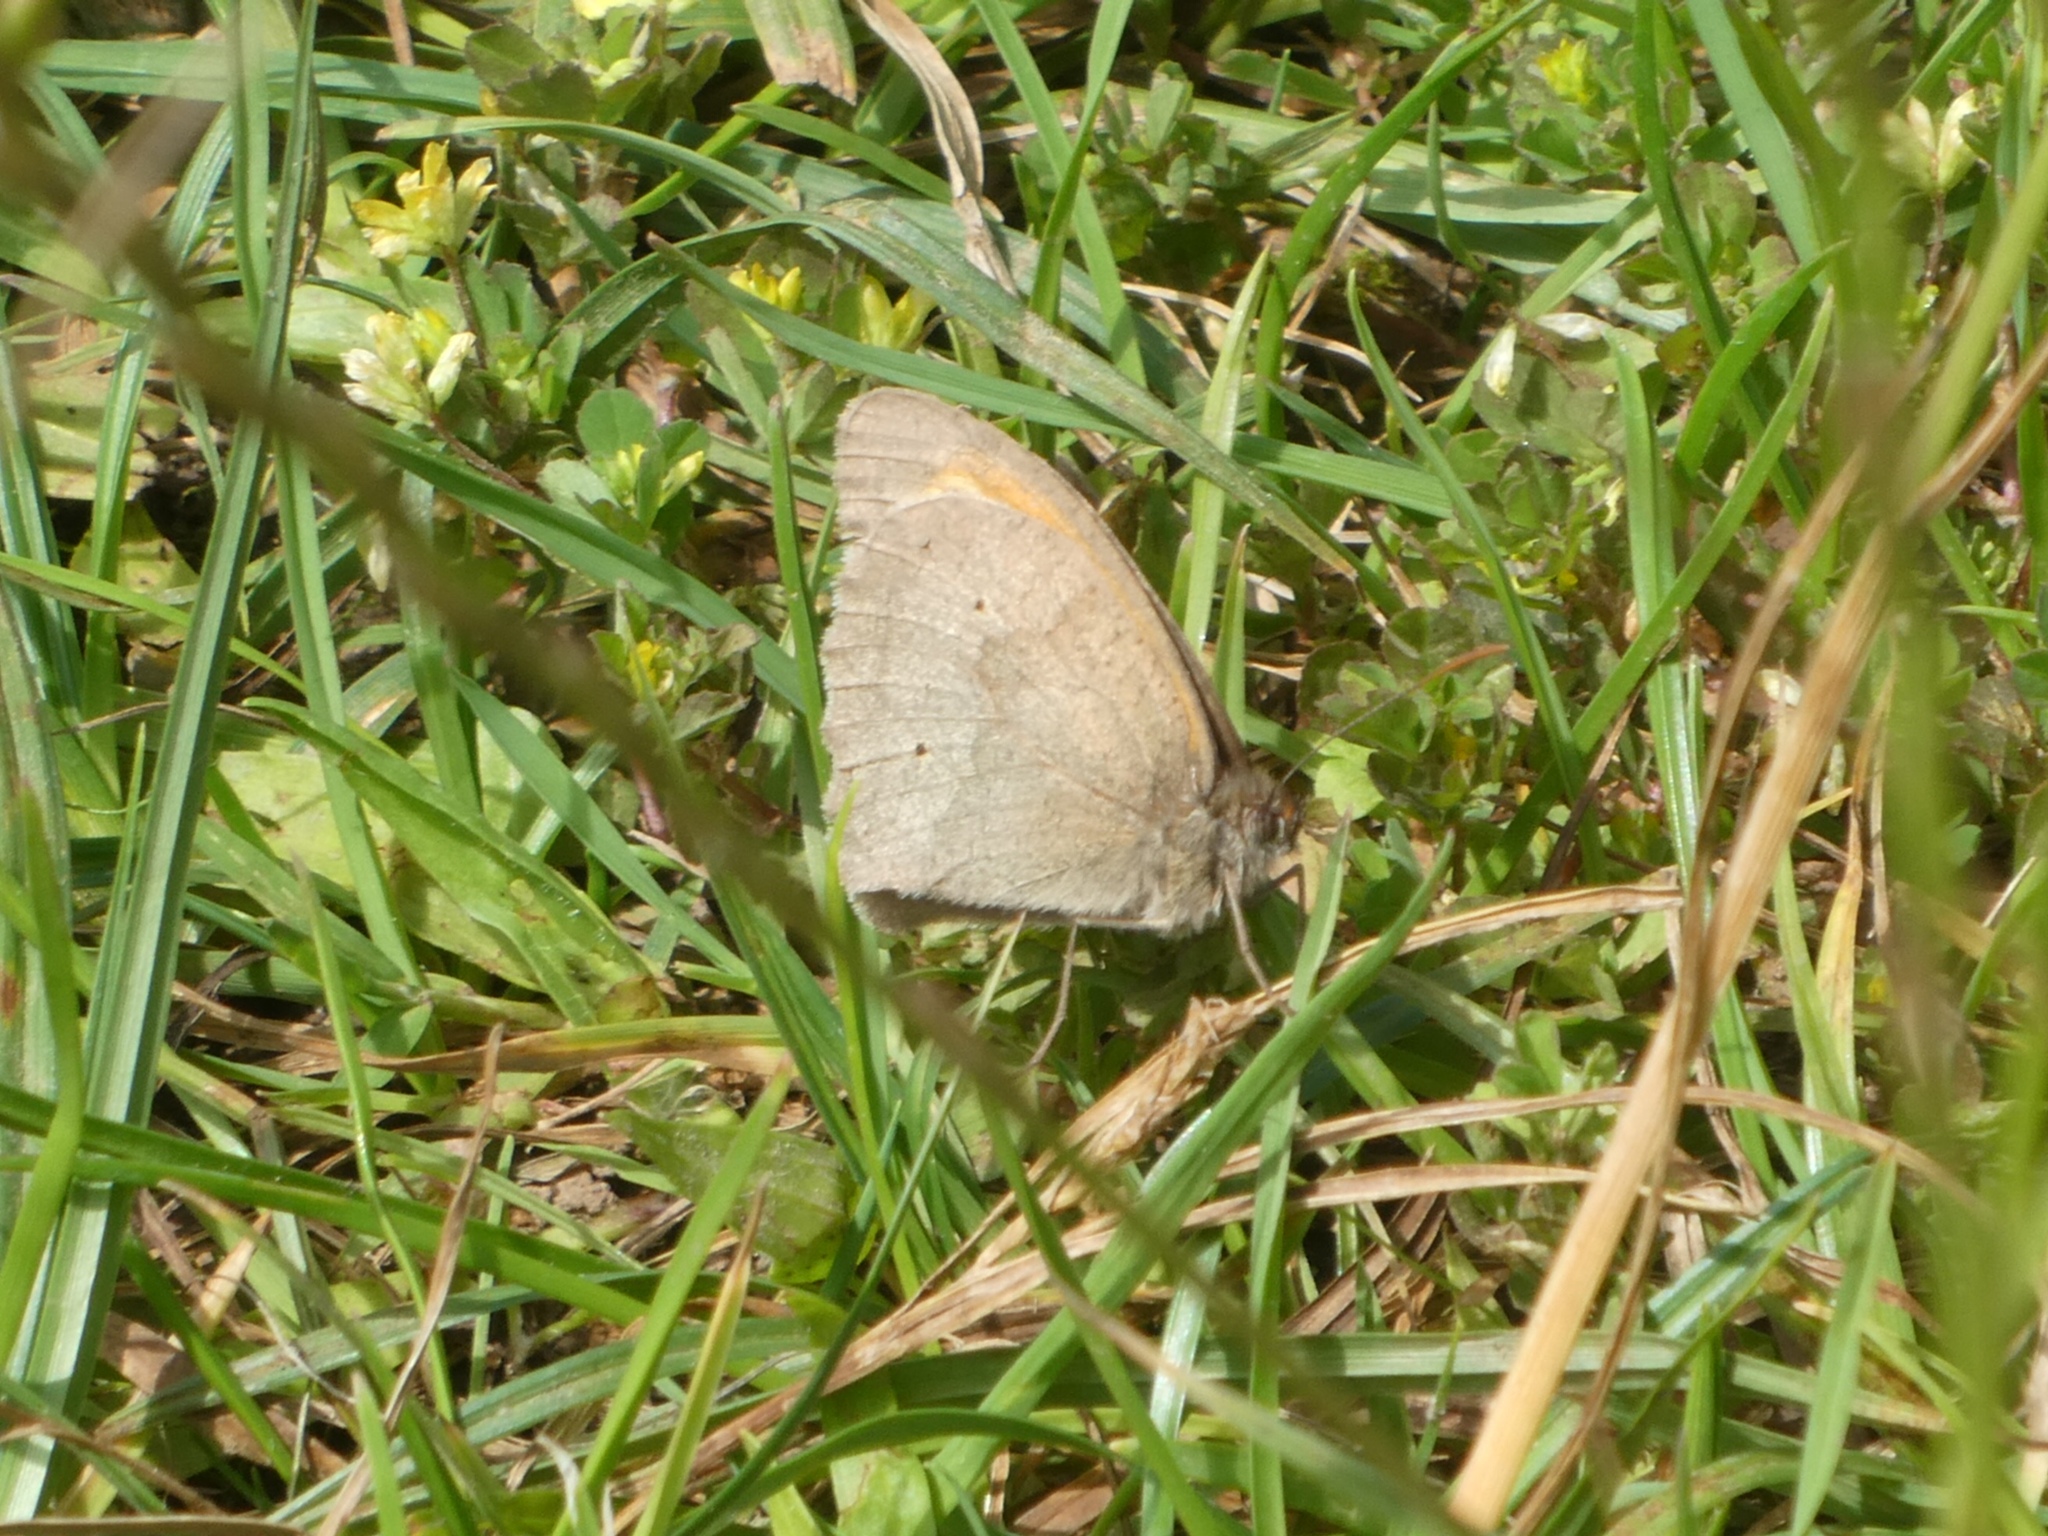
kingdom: Animalia
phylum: Arthropoda
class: Insecta
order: Lepidoptera
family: Nymphalidae
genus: Maniola
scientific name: Maniola jurtina
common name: Meadow brown
